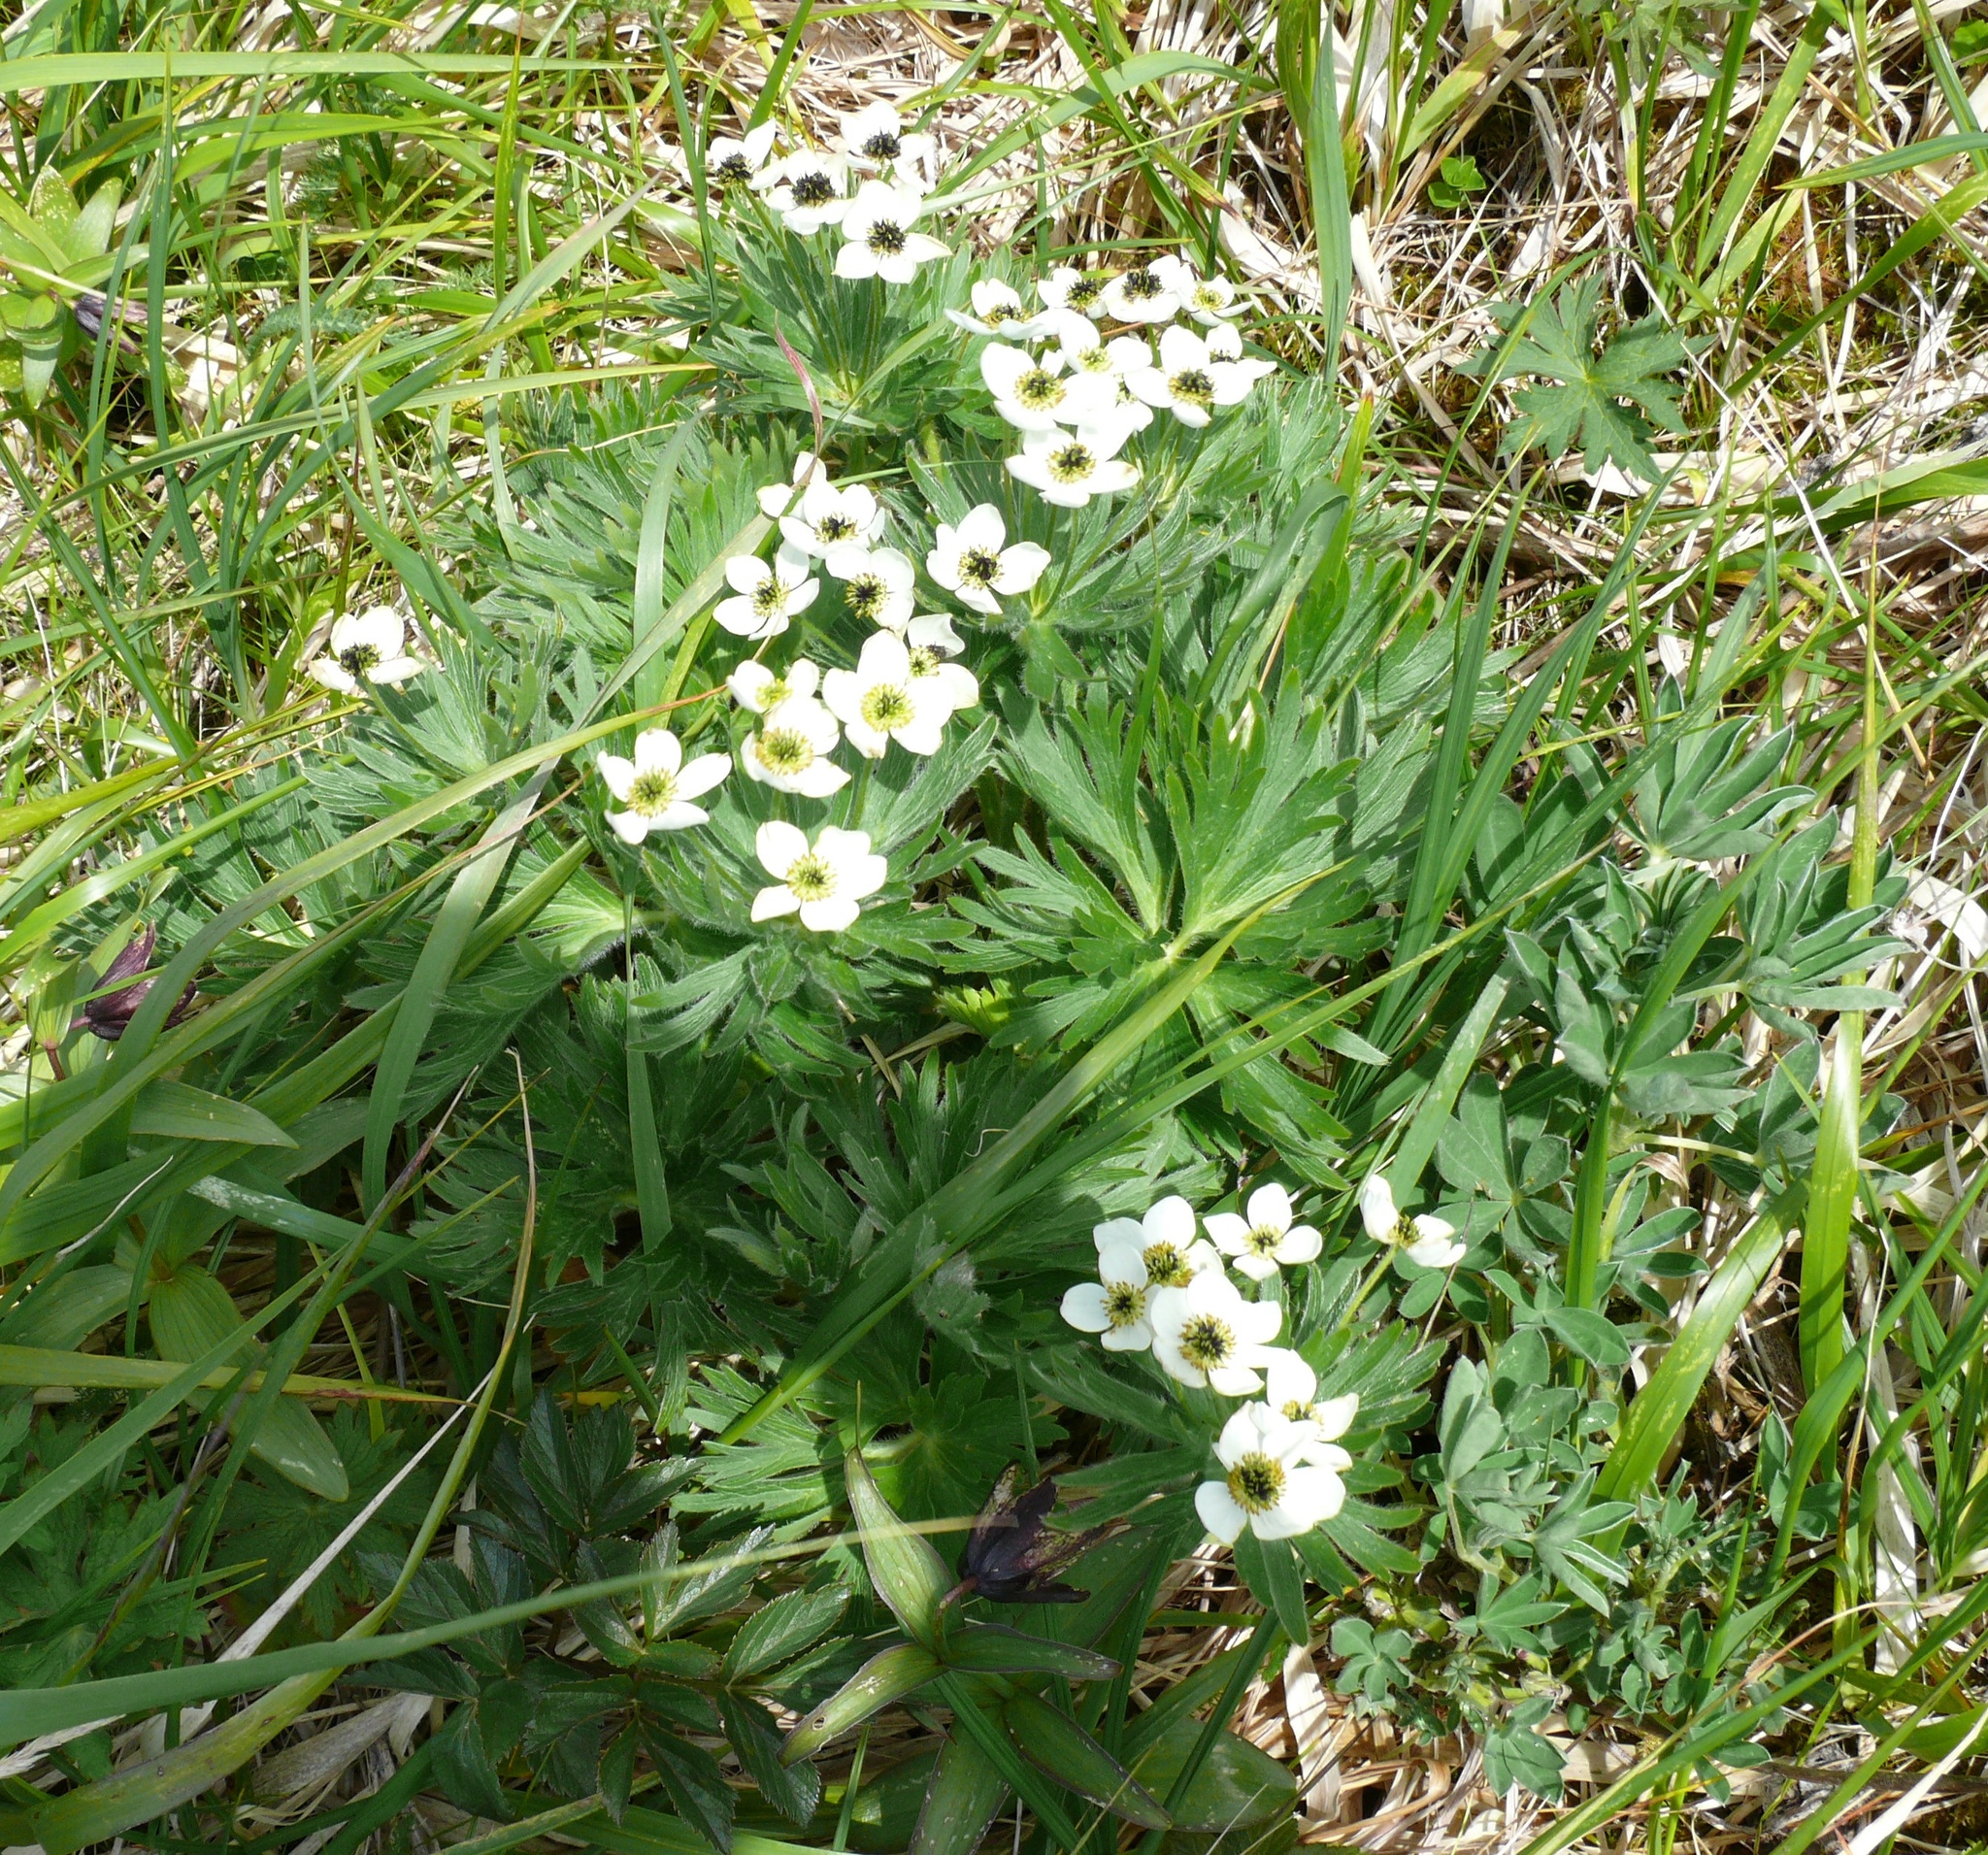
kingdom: Plantae
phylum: Tracheophyta
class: Magnoliopsida
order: Ranunculales
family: Ranunculaceae
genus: Anemonastrum
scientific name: Anemonastrum narcissiflorum
